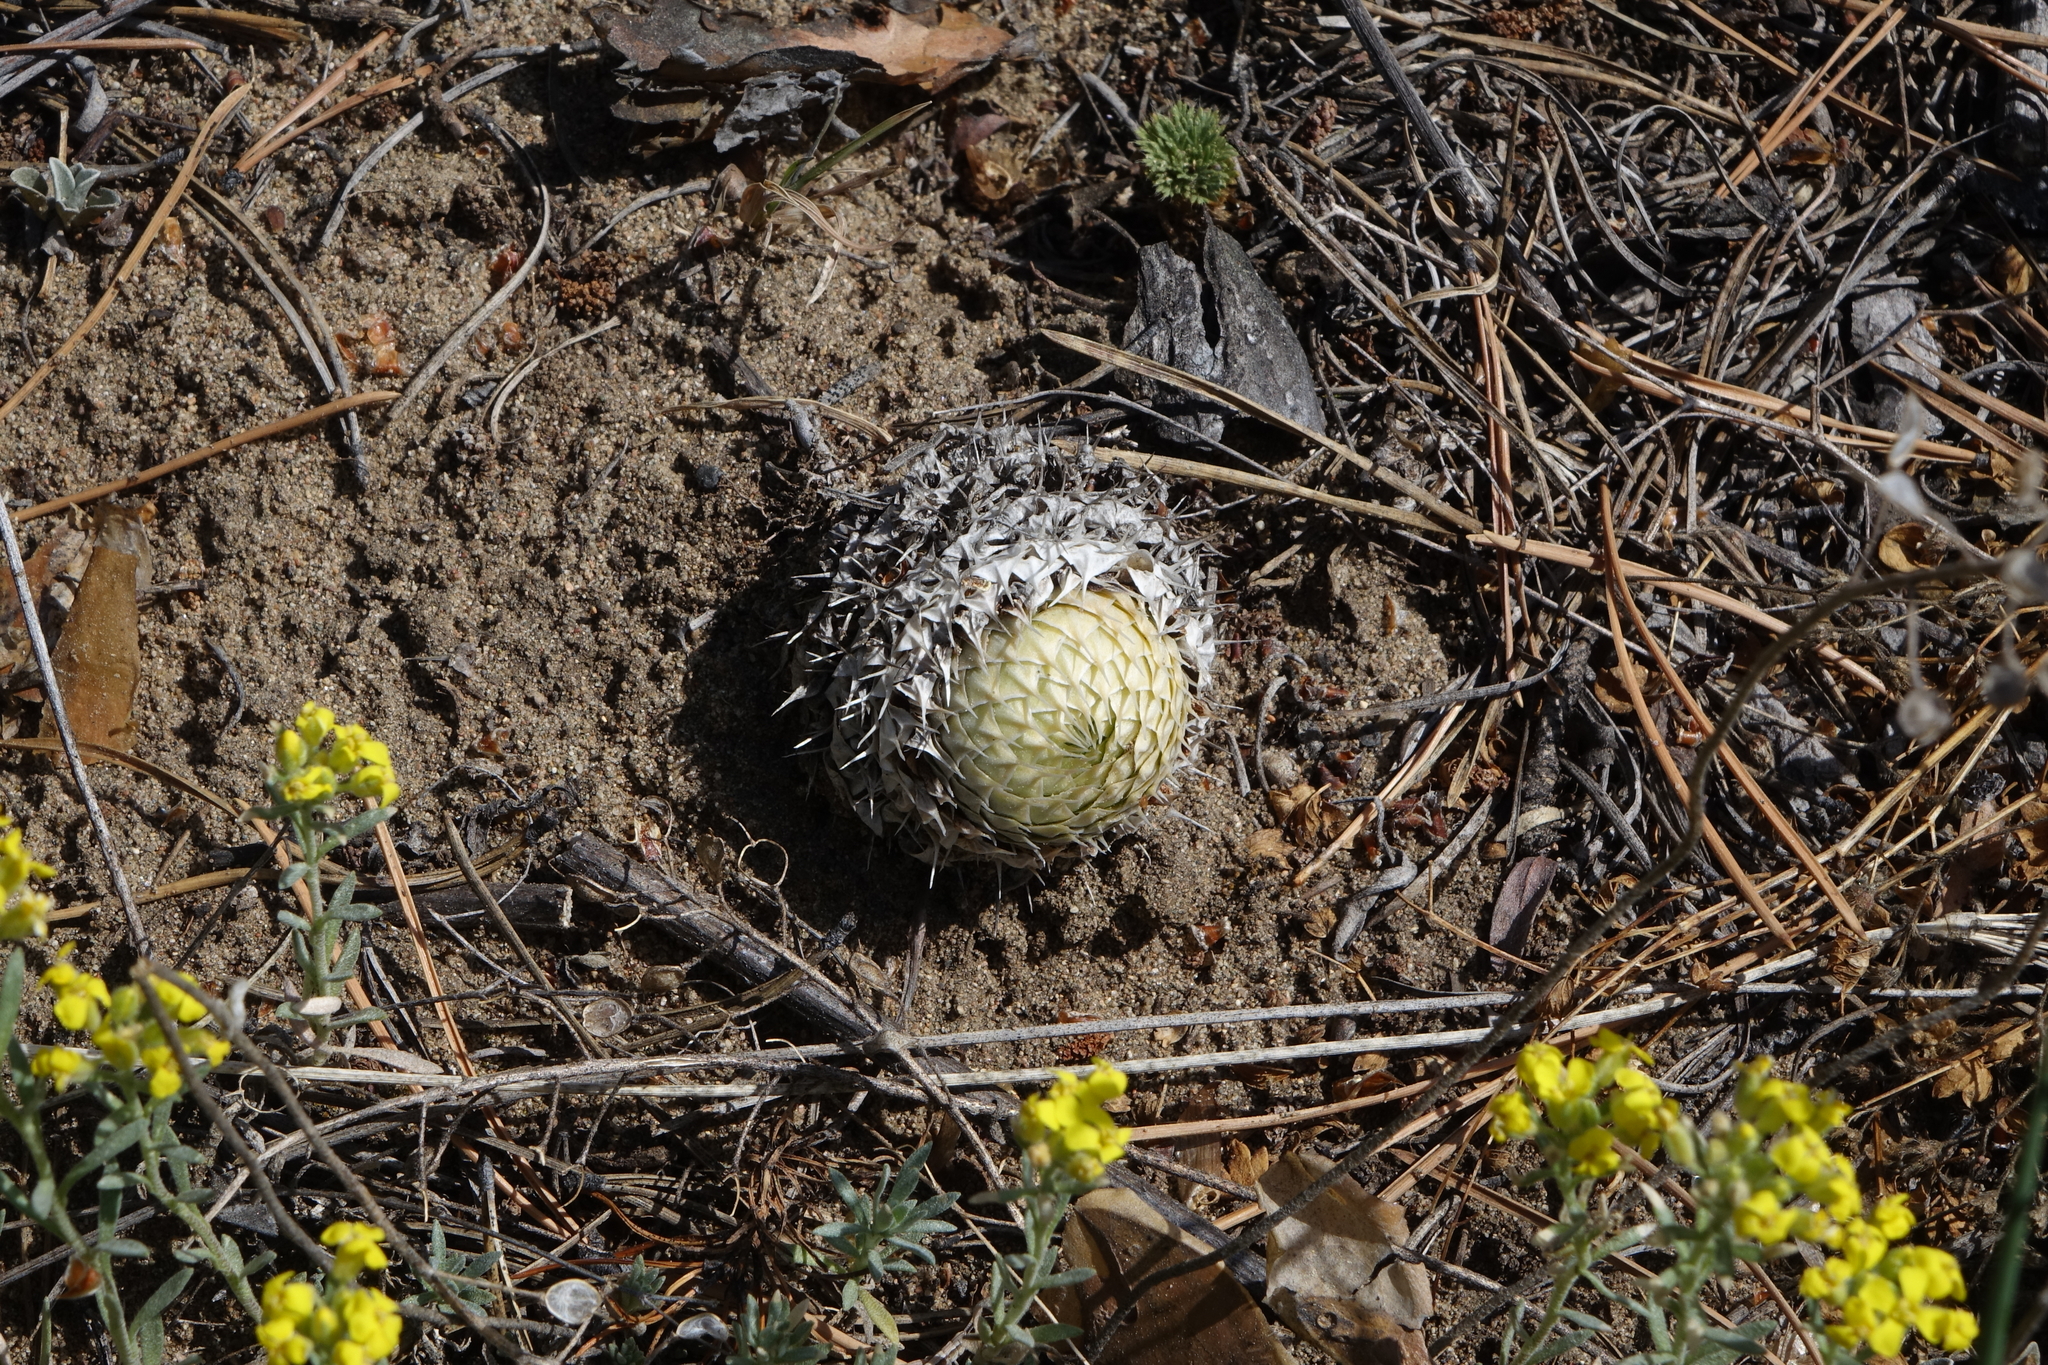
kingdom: Plantae
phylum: Tracheophyta
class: Magnoliopsida
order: Saxifragales
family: Crassulaceae
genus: Orostachys
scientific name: Orostachys spinosa
